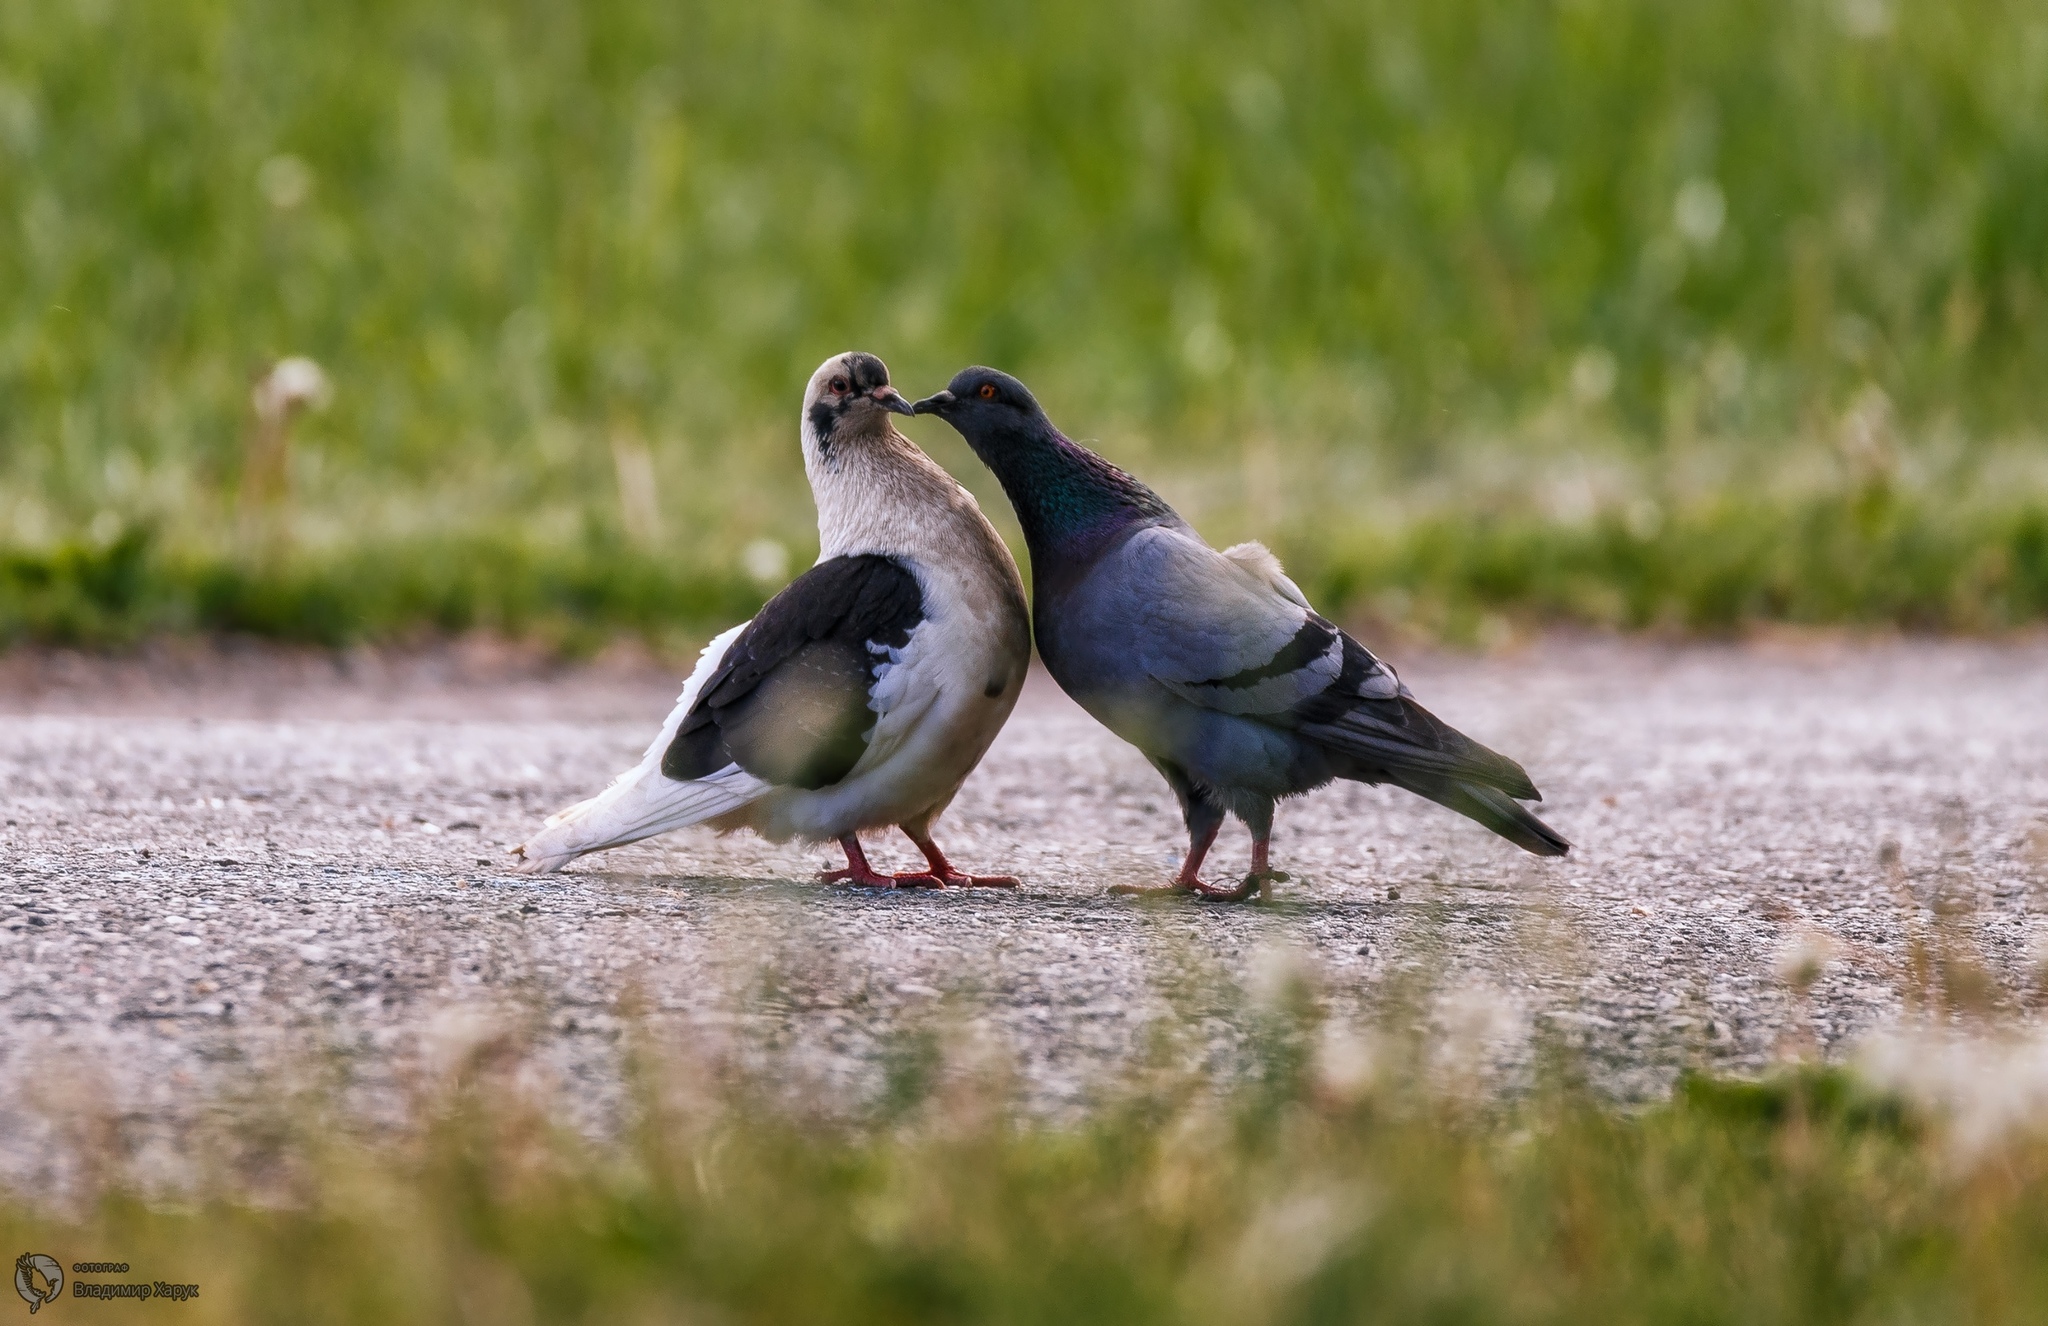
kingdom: Animalia
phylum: Chordata
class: Aves
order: Columbiformes
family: Columbidae
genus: Columba
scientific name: Columba livia
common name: Rock pigeon
